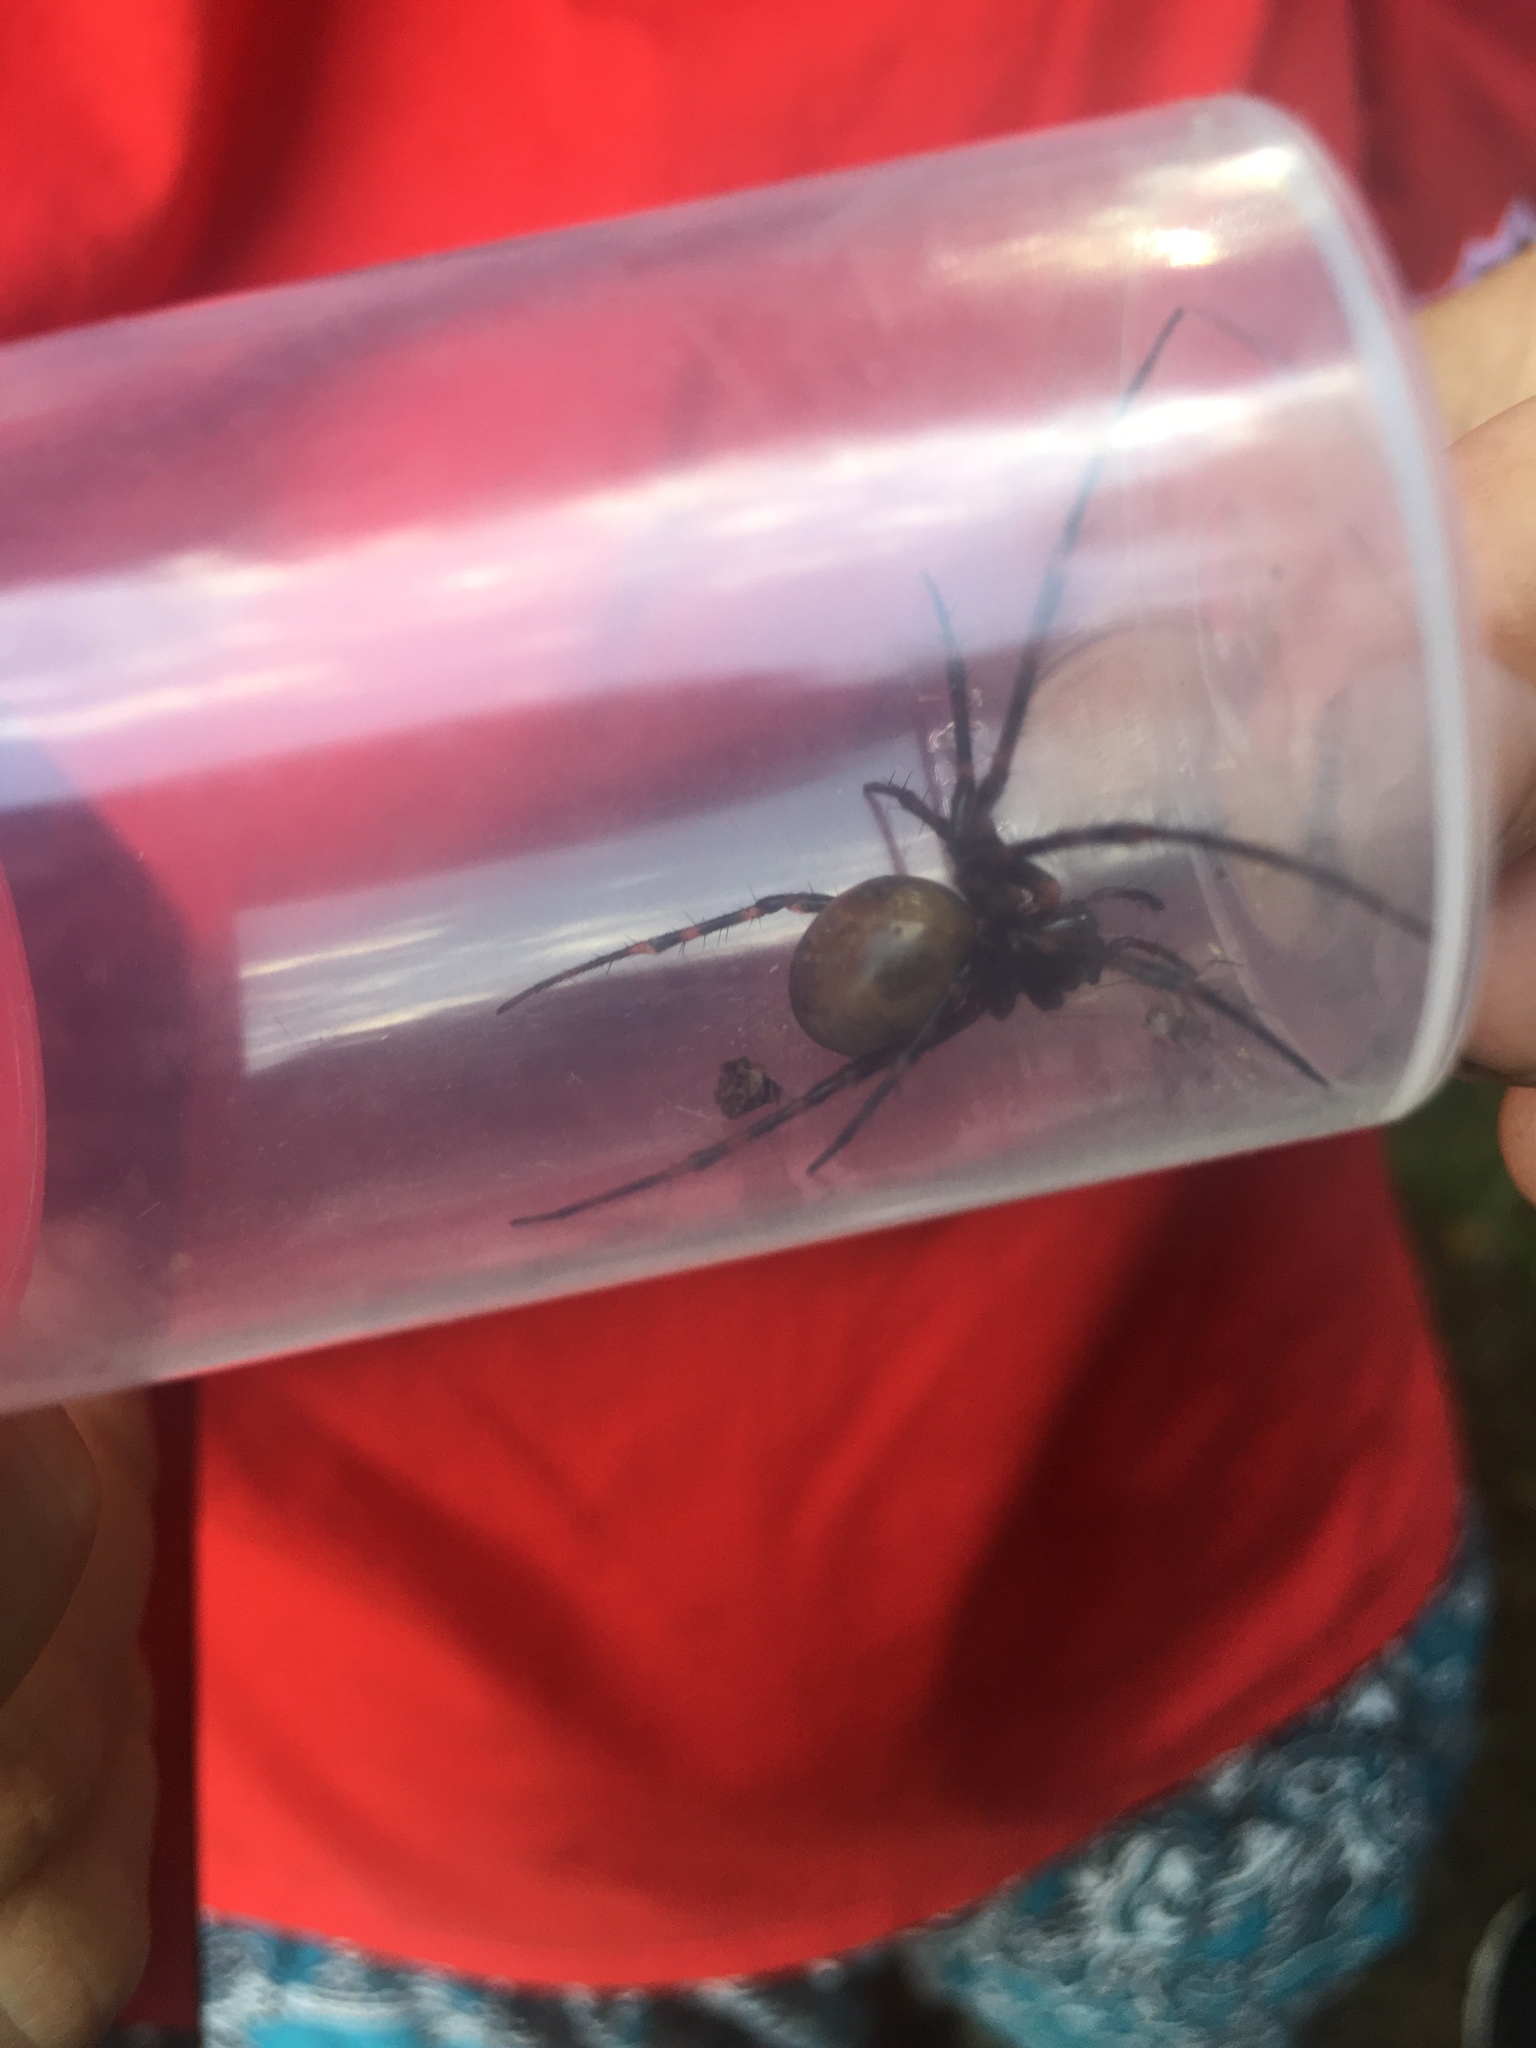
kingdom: Animalia
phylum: Arthropoda
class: Arachnida
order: Araneae
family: Tetragnathidae
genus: Meta
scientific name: Meta menardi
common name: Cave spider
